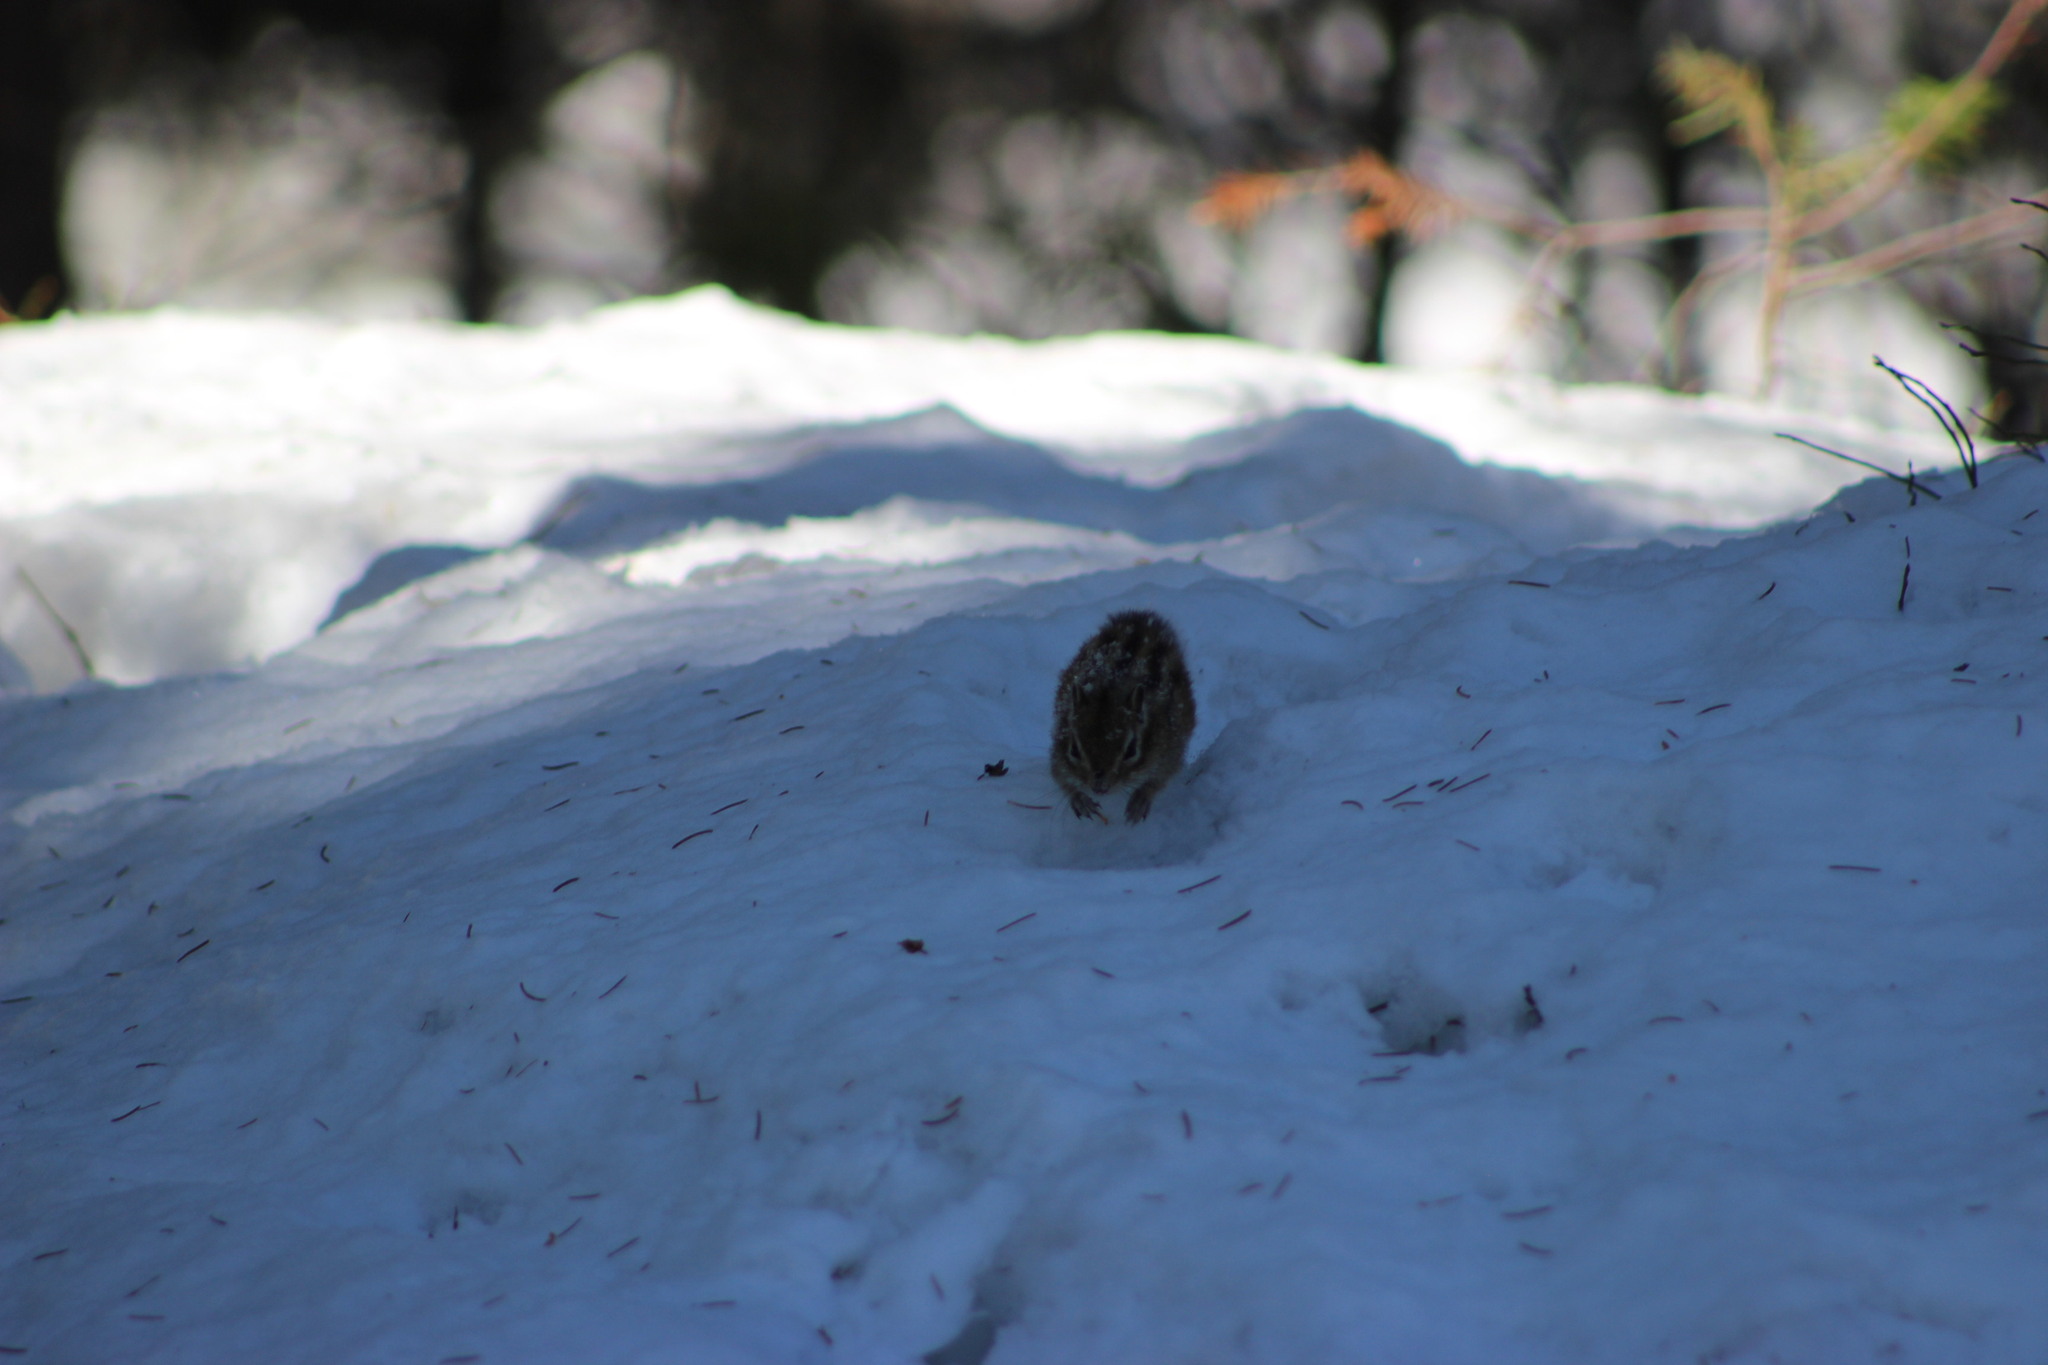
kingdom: Animalia
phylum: Chordata
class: Mammalia
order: Rodentia
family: Sciuridae
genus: Tamias
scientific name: Tamias sibiricus
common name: Siberian chipmunk
